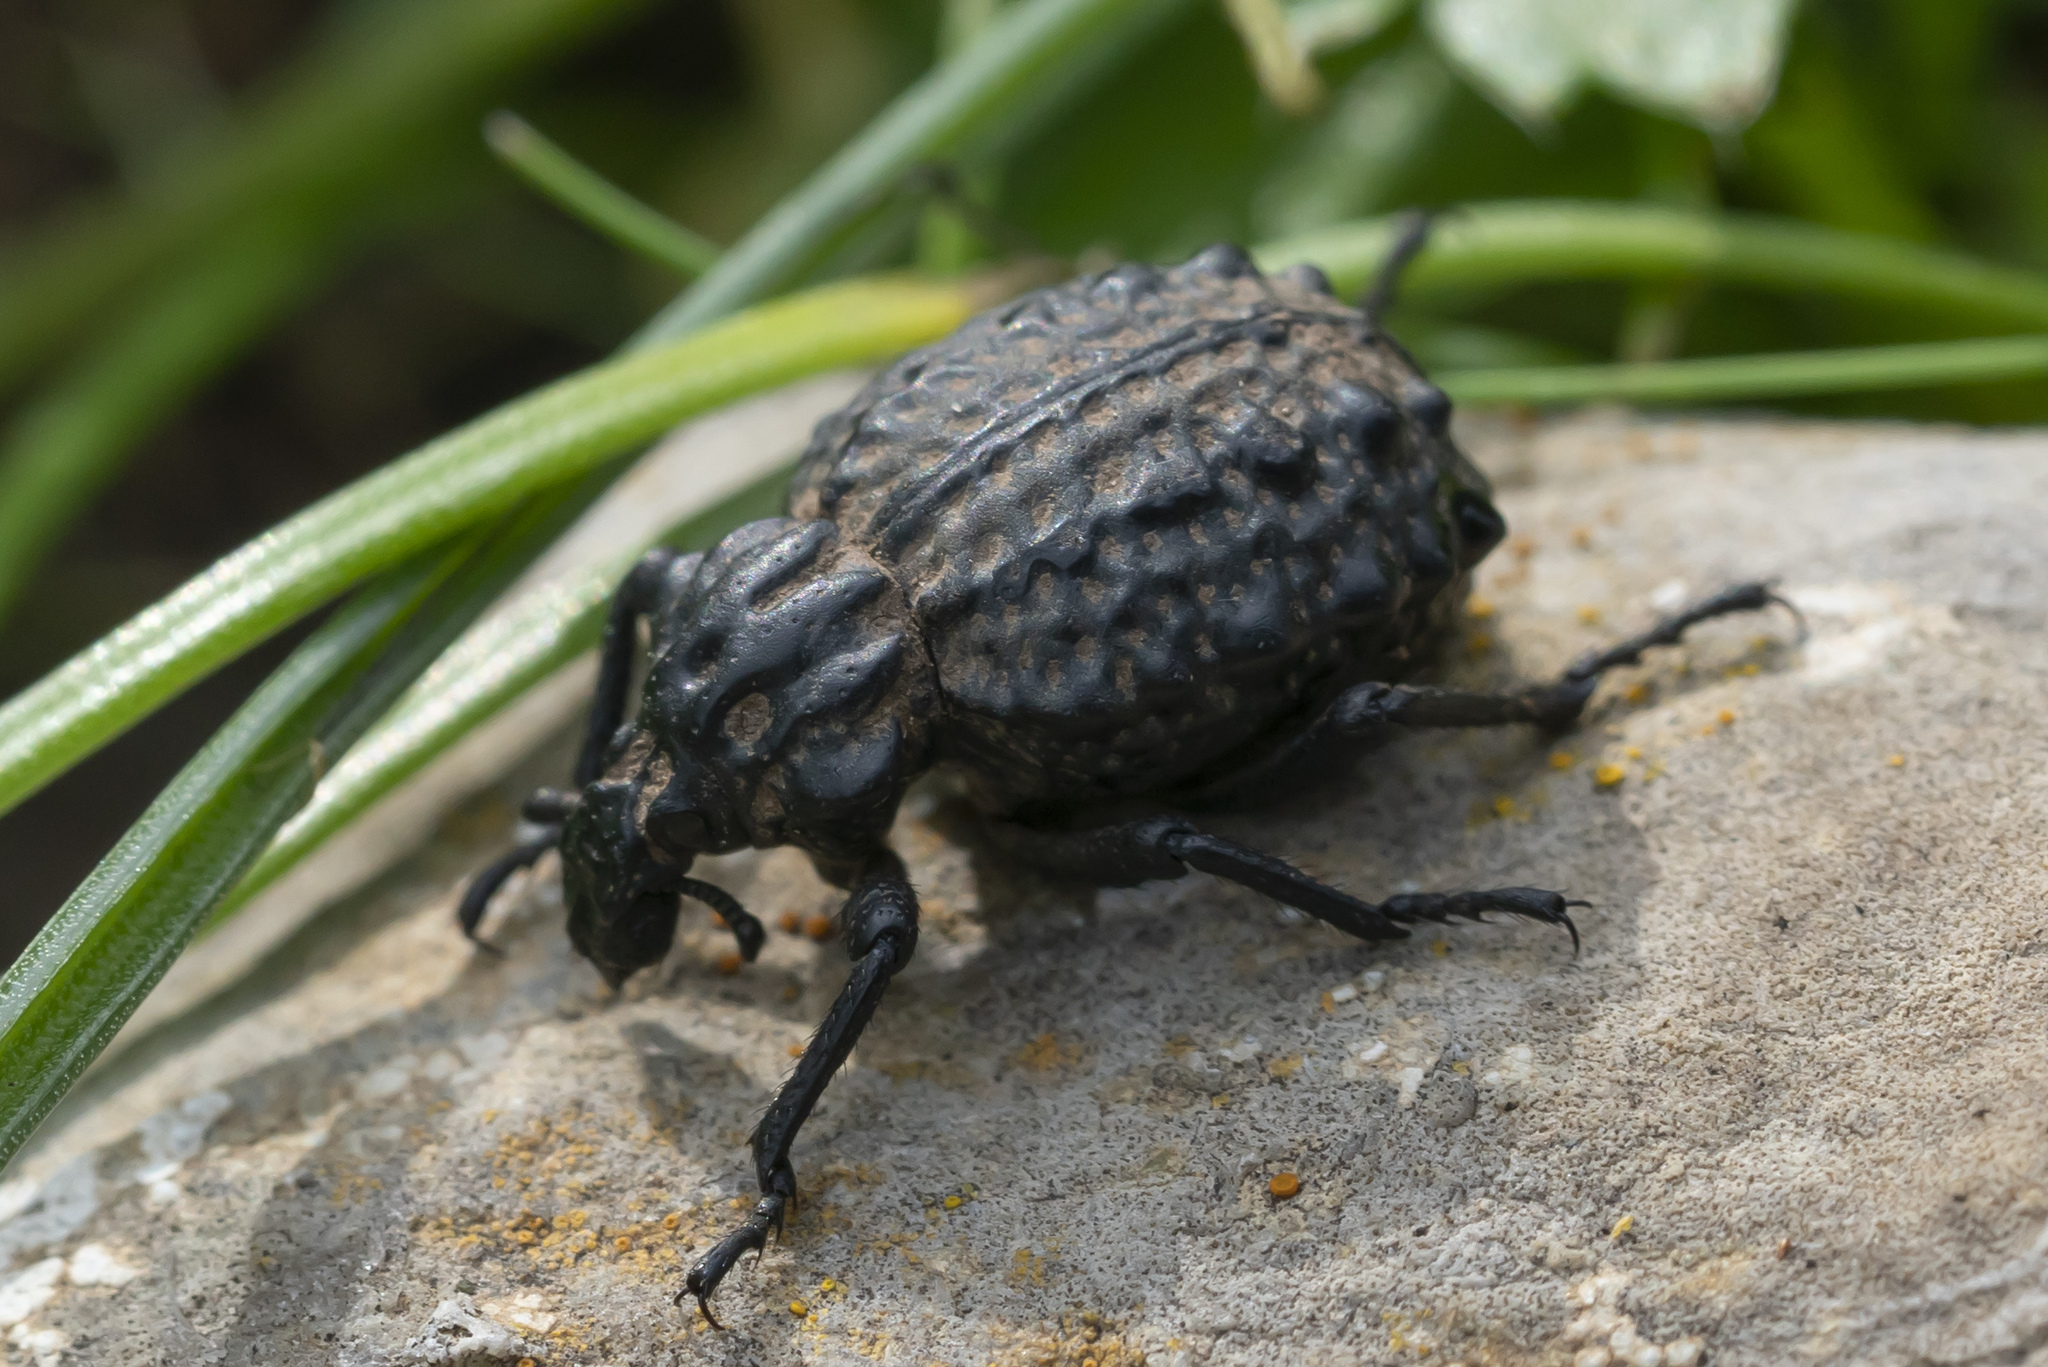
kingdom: Animalia
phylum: Arthropoda
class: Insecta
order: Coleoptera
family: Brachyceridae
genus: Brachycerus
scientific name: Brachycerus aegyptiacus
